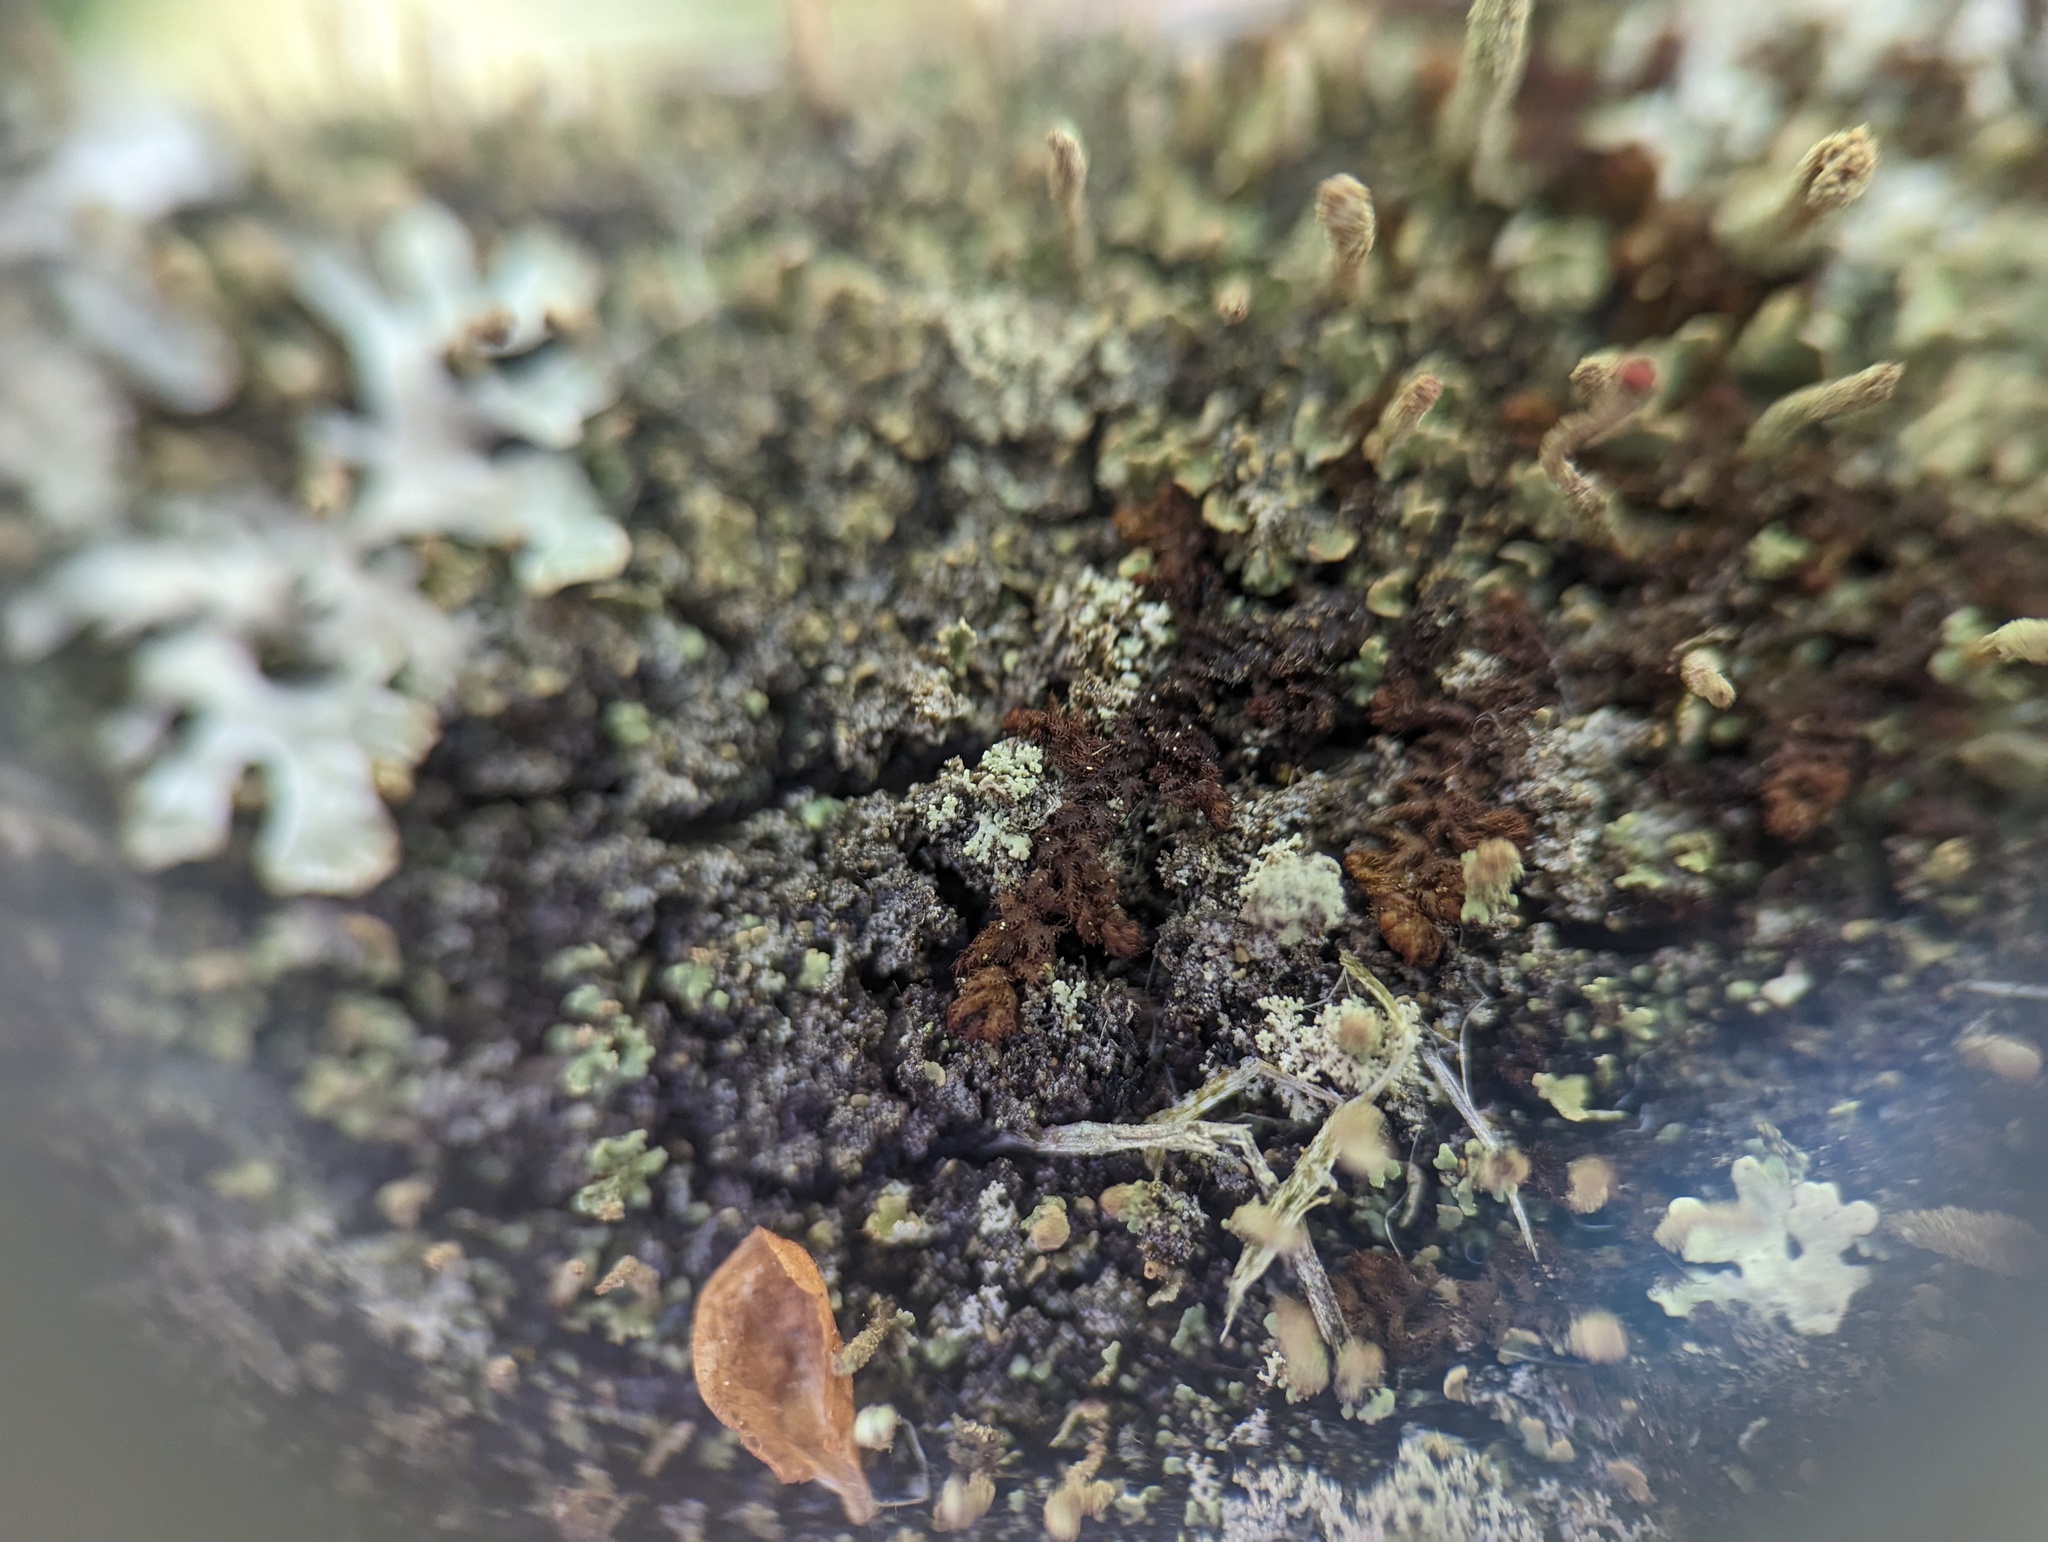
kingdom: Plantae
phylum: Marchantiophyta
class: Jungermanniopsida
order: Ptilidiales
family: Ptilidiaceae
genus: Ptilidium
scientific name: Ptilidium pulcherrimum
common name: Tree fringewort
